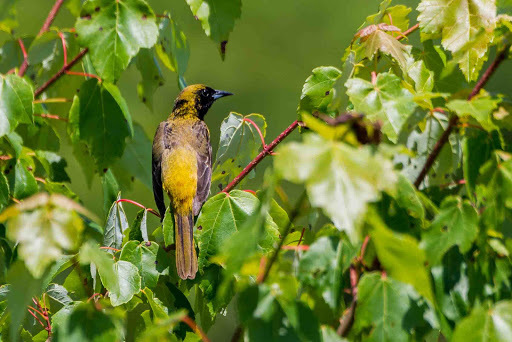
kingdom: Animalia
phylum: Chordata
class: Aves
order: Passeriformes
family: Icteridae
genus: Icterus
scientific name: Icterus spurius
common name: Orchard oriole
